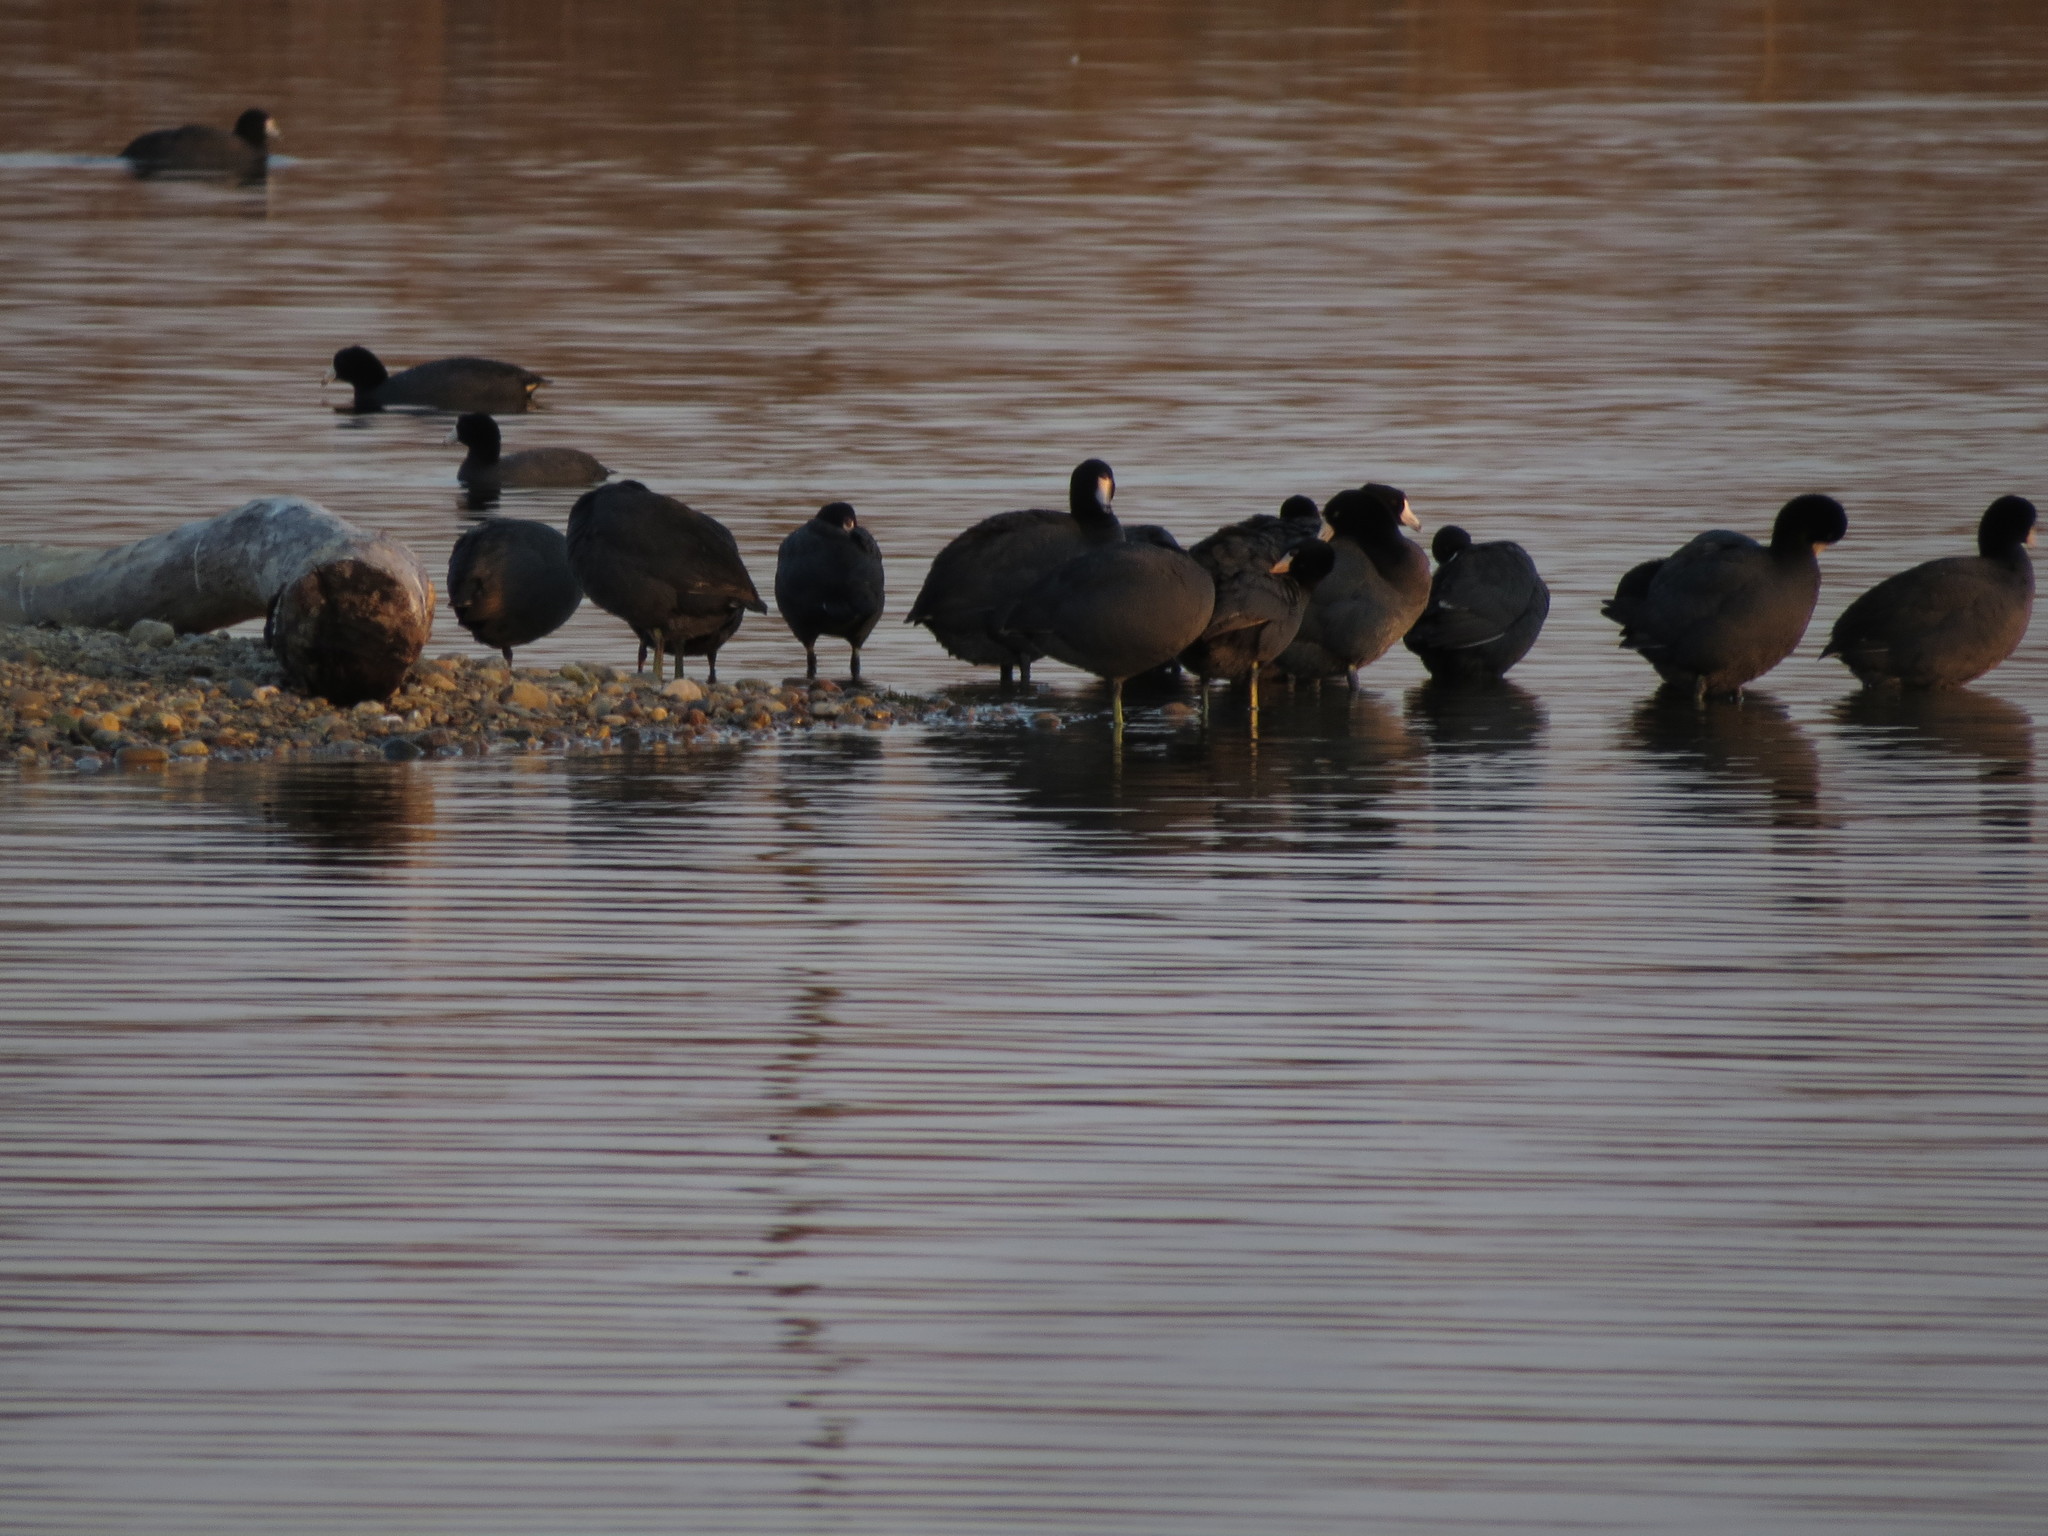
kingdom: Animalia
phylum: Chordata
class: Aves
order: Gruiformes
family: Rallidae
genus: Fulica
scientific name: Fulica americana
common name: American coot
